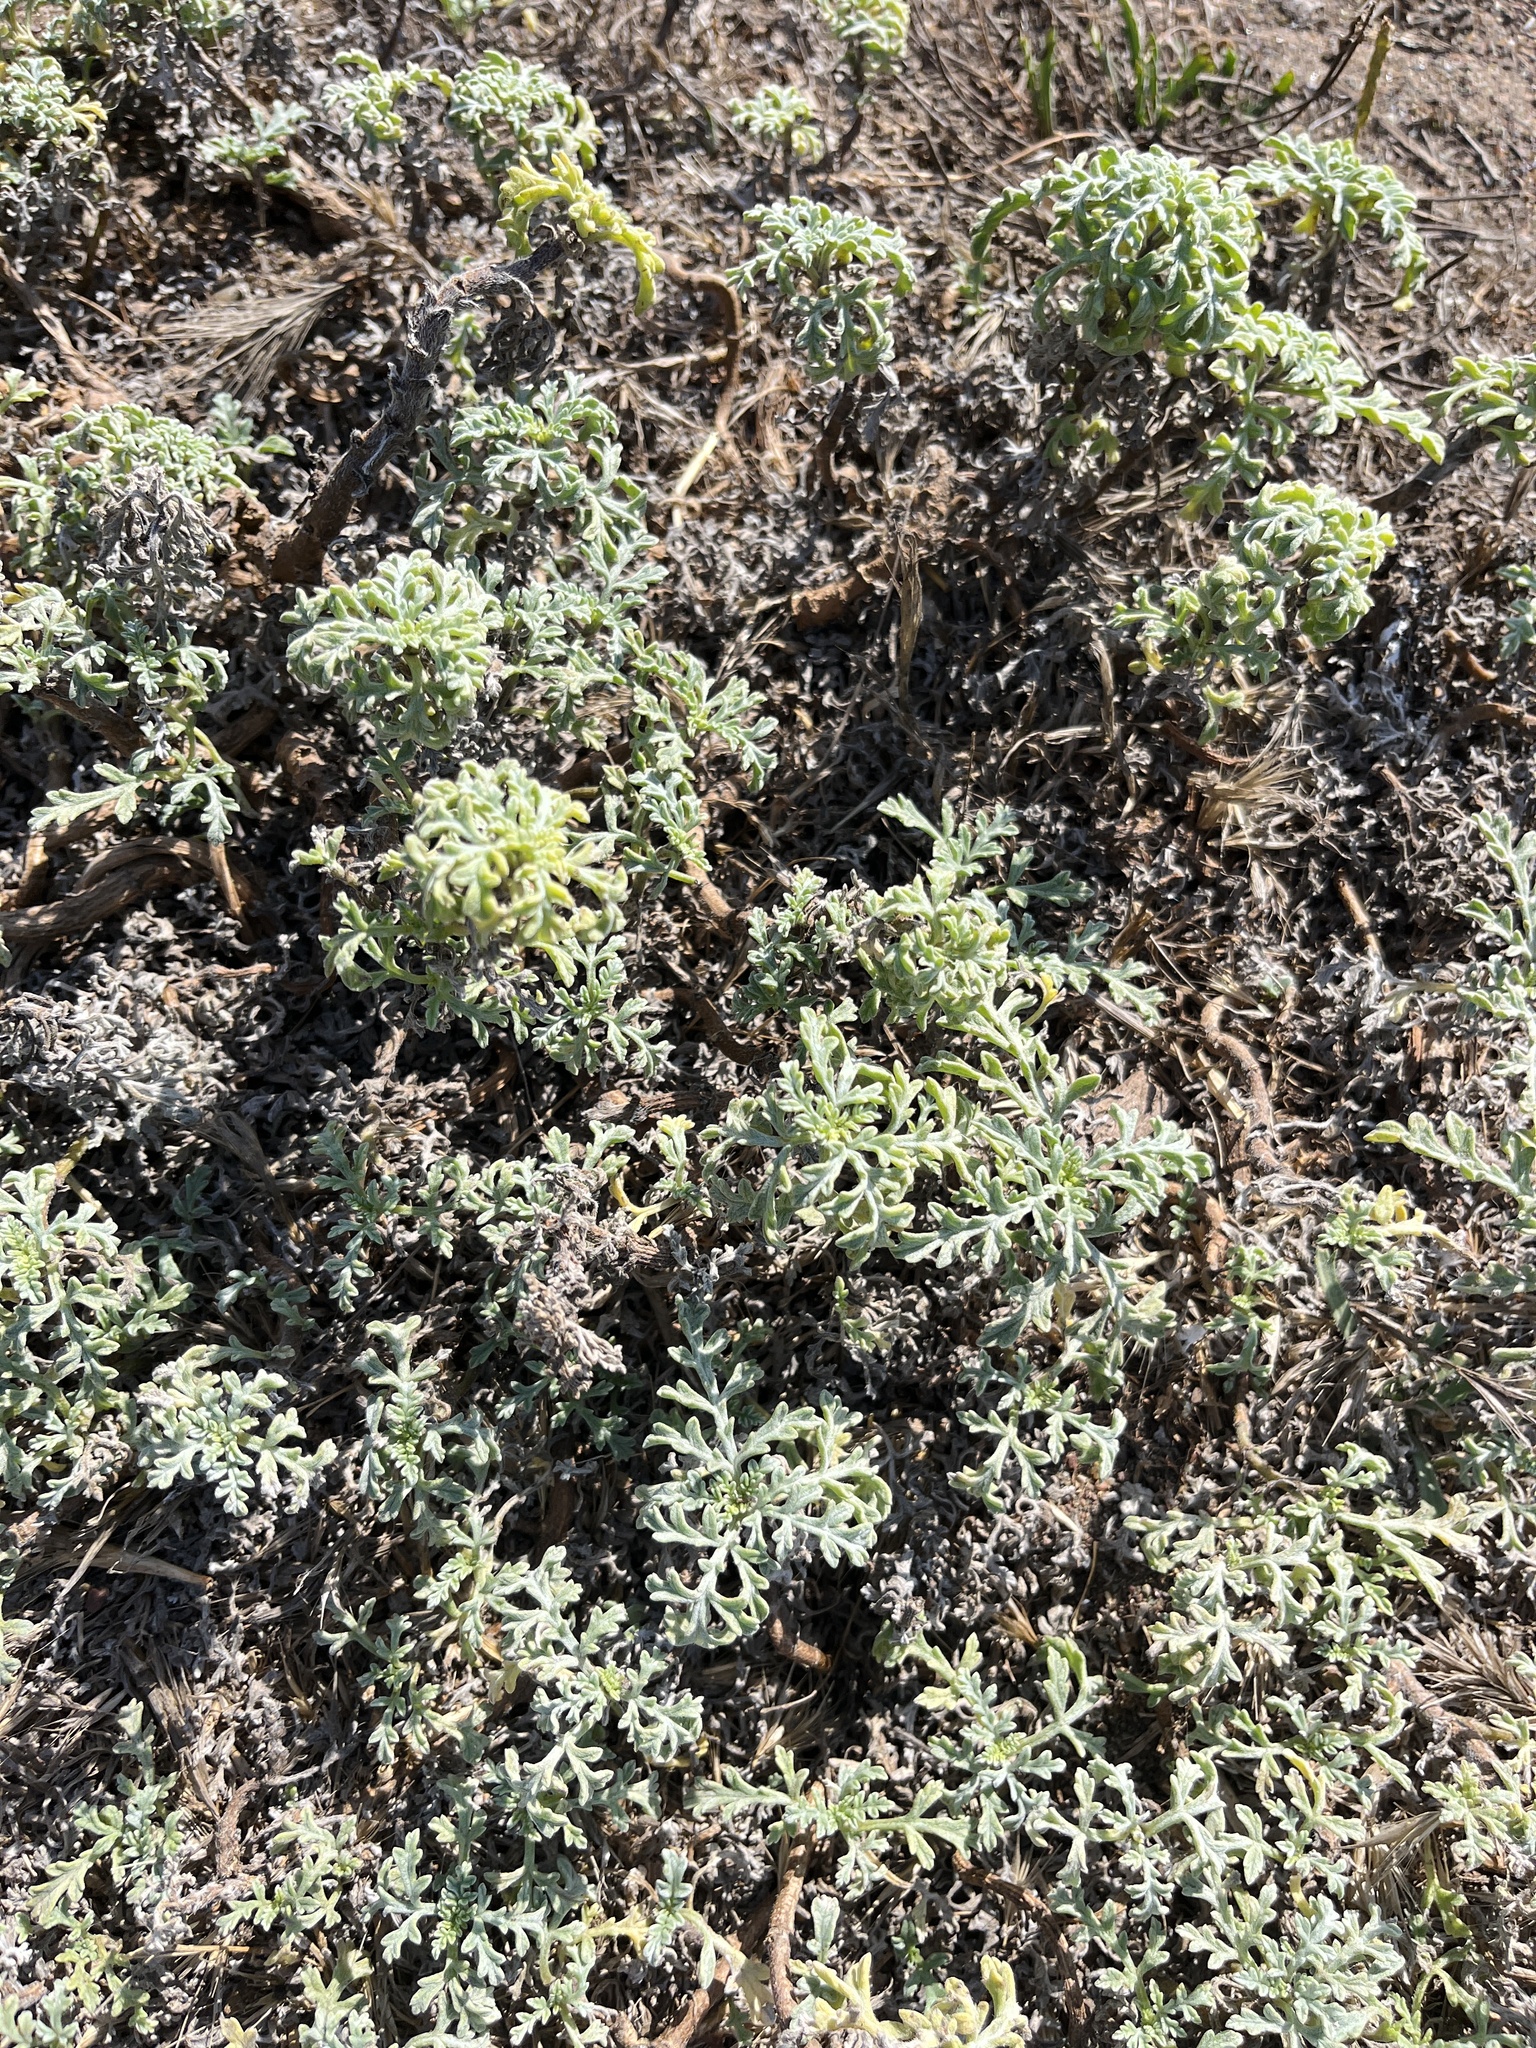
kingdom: Plantae
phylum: Tracheophyta
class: Magnoliopsida
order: Asterales
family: Asteraceae
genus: Ambrosia
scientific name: Ambrosia chamissonis
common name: Beachbur
